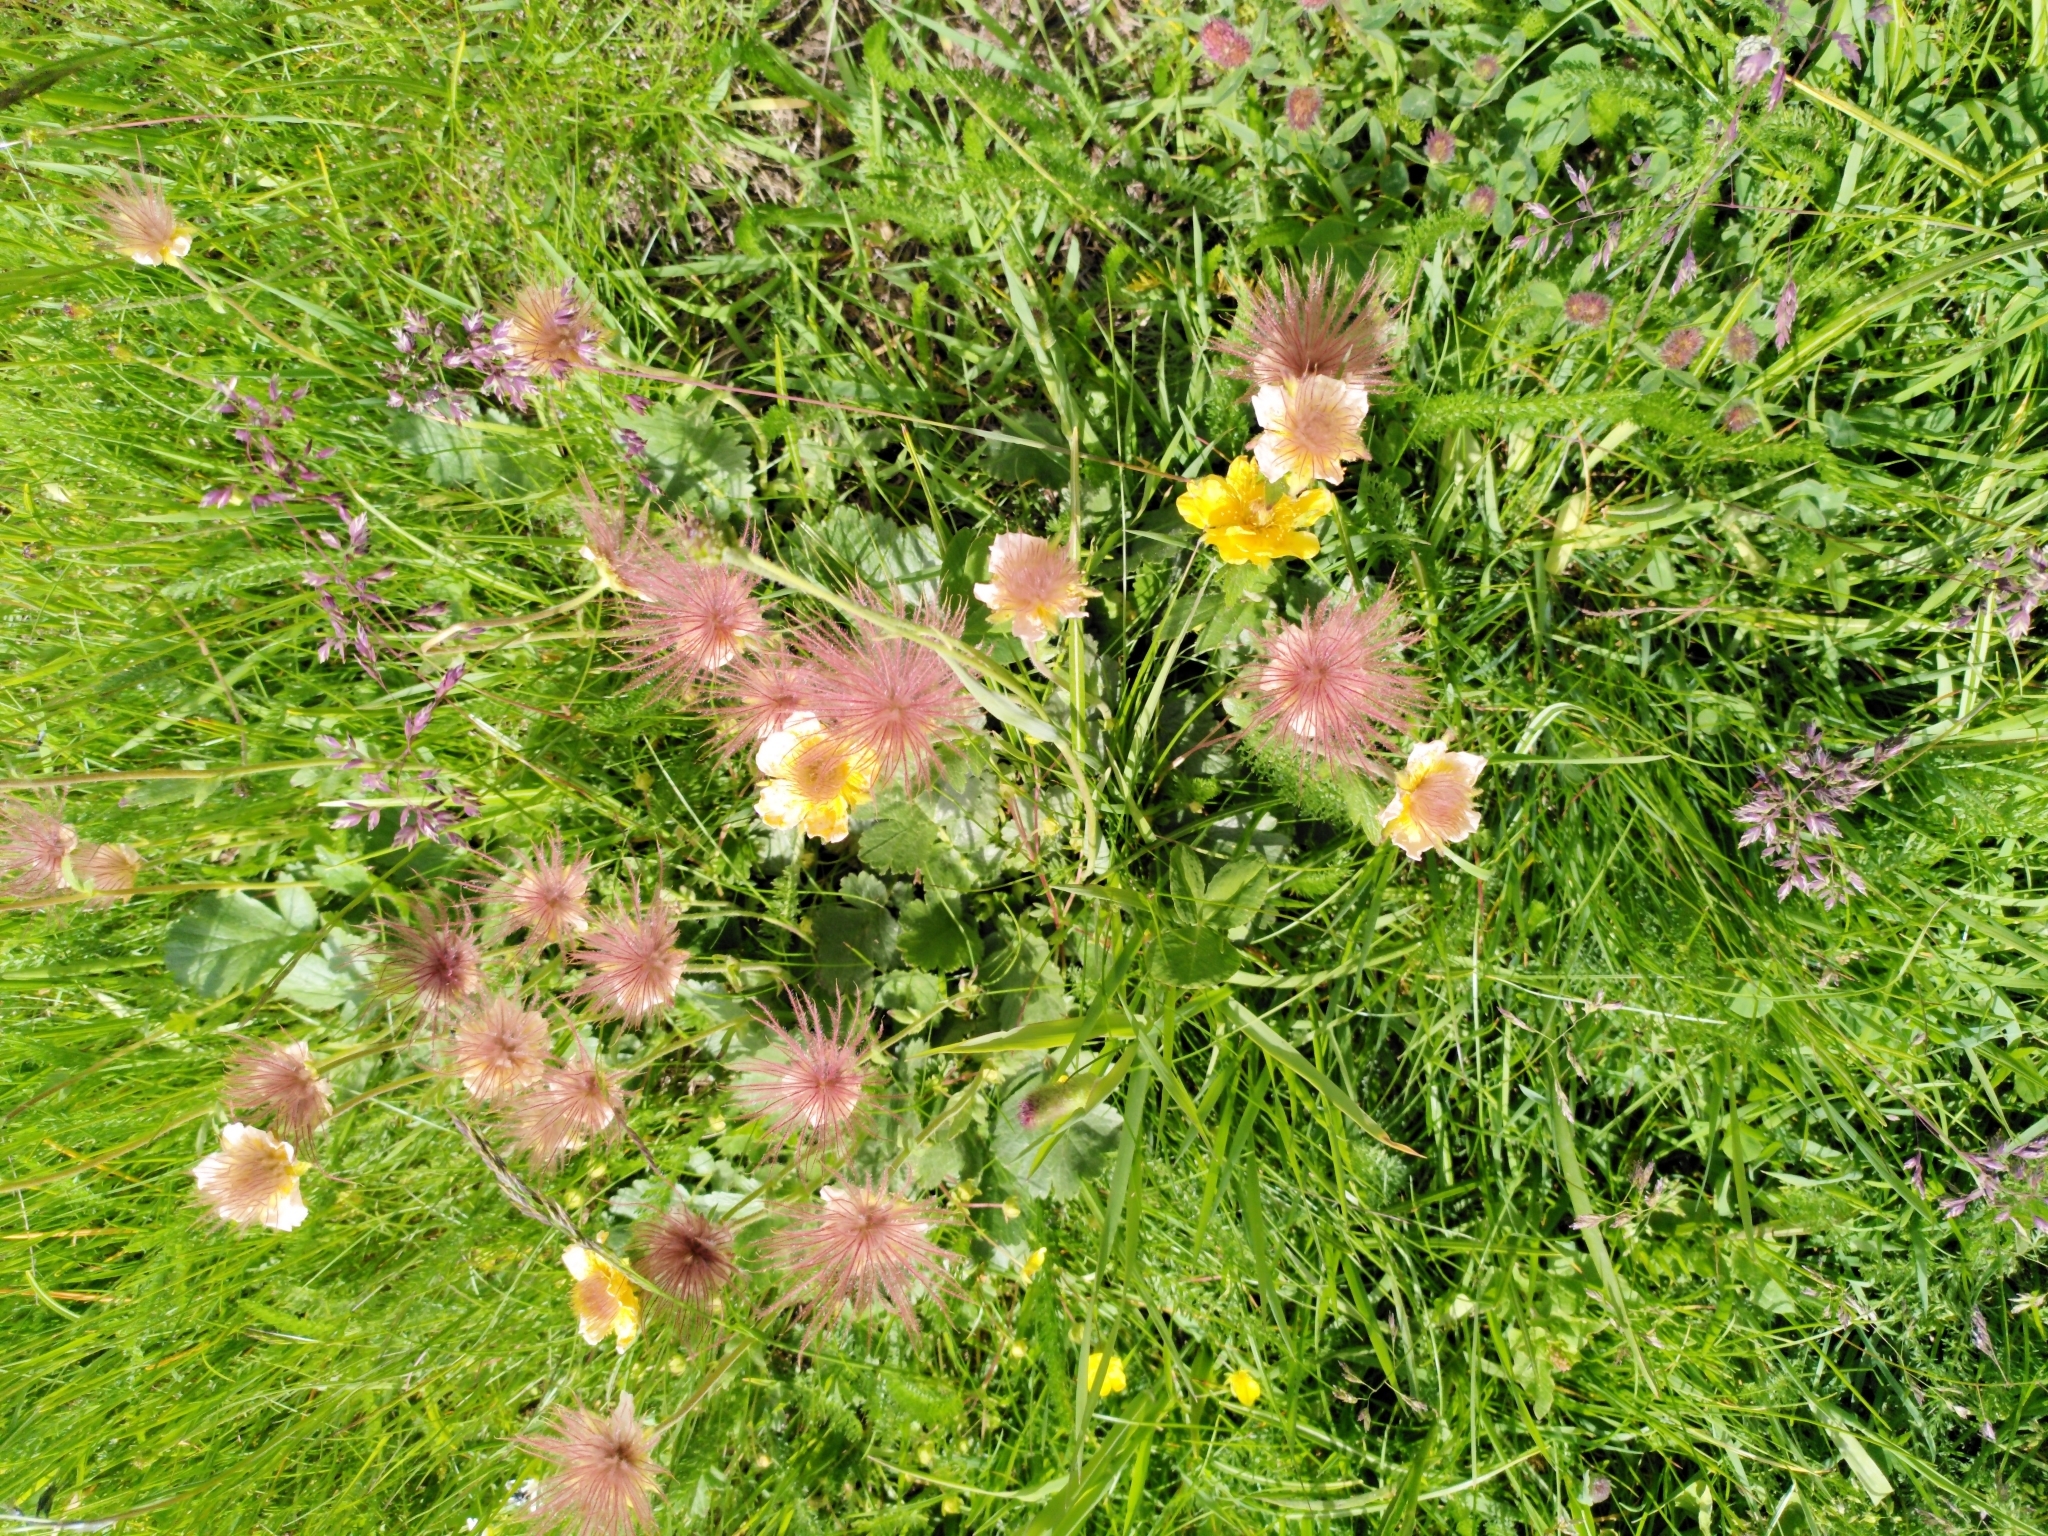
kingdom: Plantae
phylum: Tracheophyta
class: Magnoliopsida
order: Rosales
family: Rosaceae
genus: Geum
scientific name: Geum montanum
